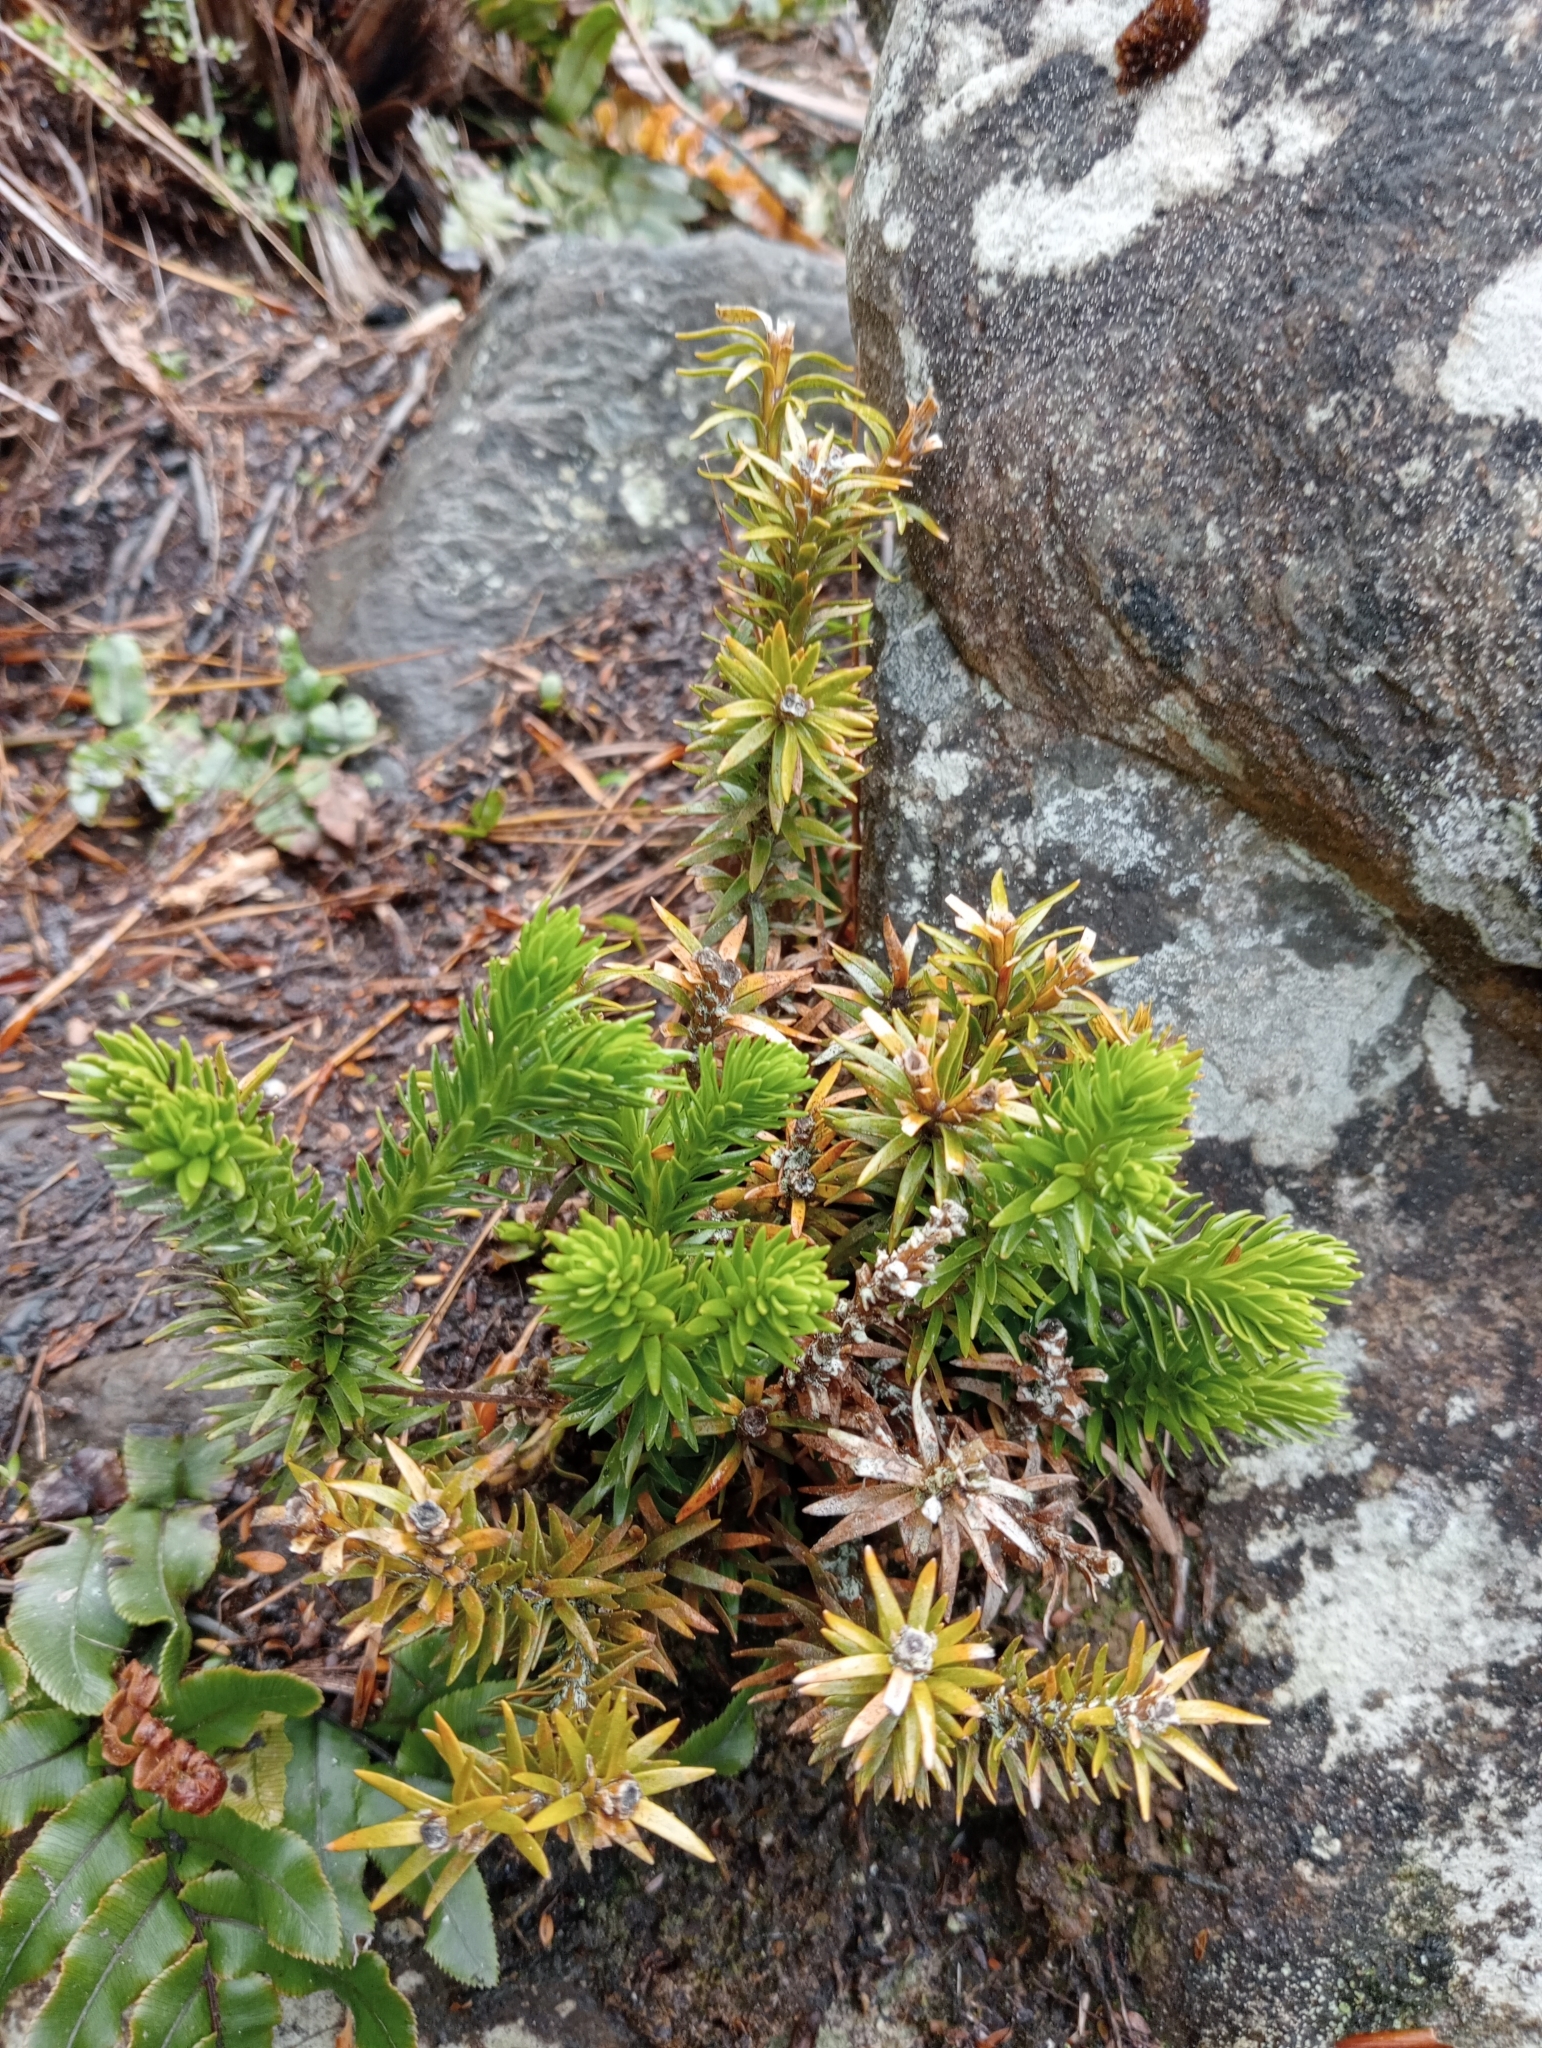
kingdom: Plantae
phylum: Tracheophyta
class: Lycopodiopsida
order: Lycopodiales
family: Lycopodiaceae
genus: Phlegmariurus
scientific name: Phlegmariurus varius
